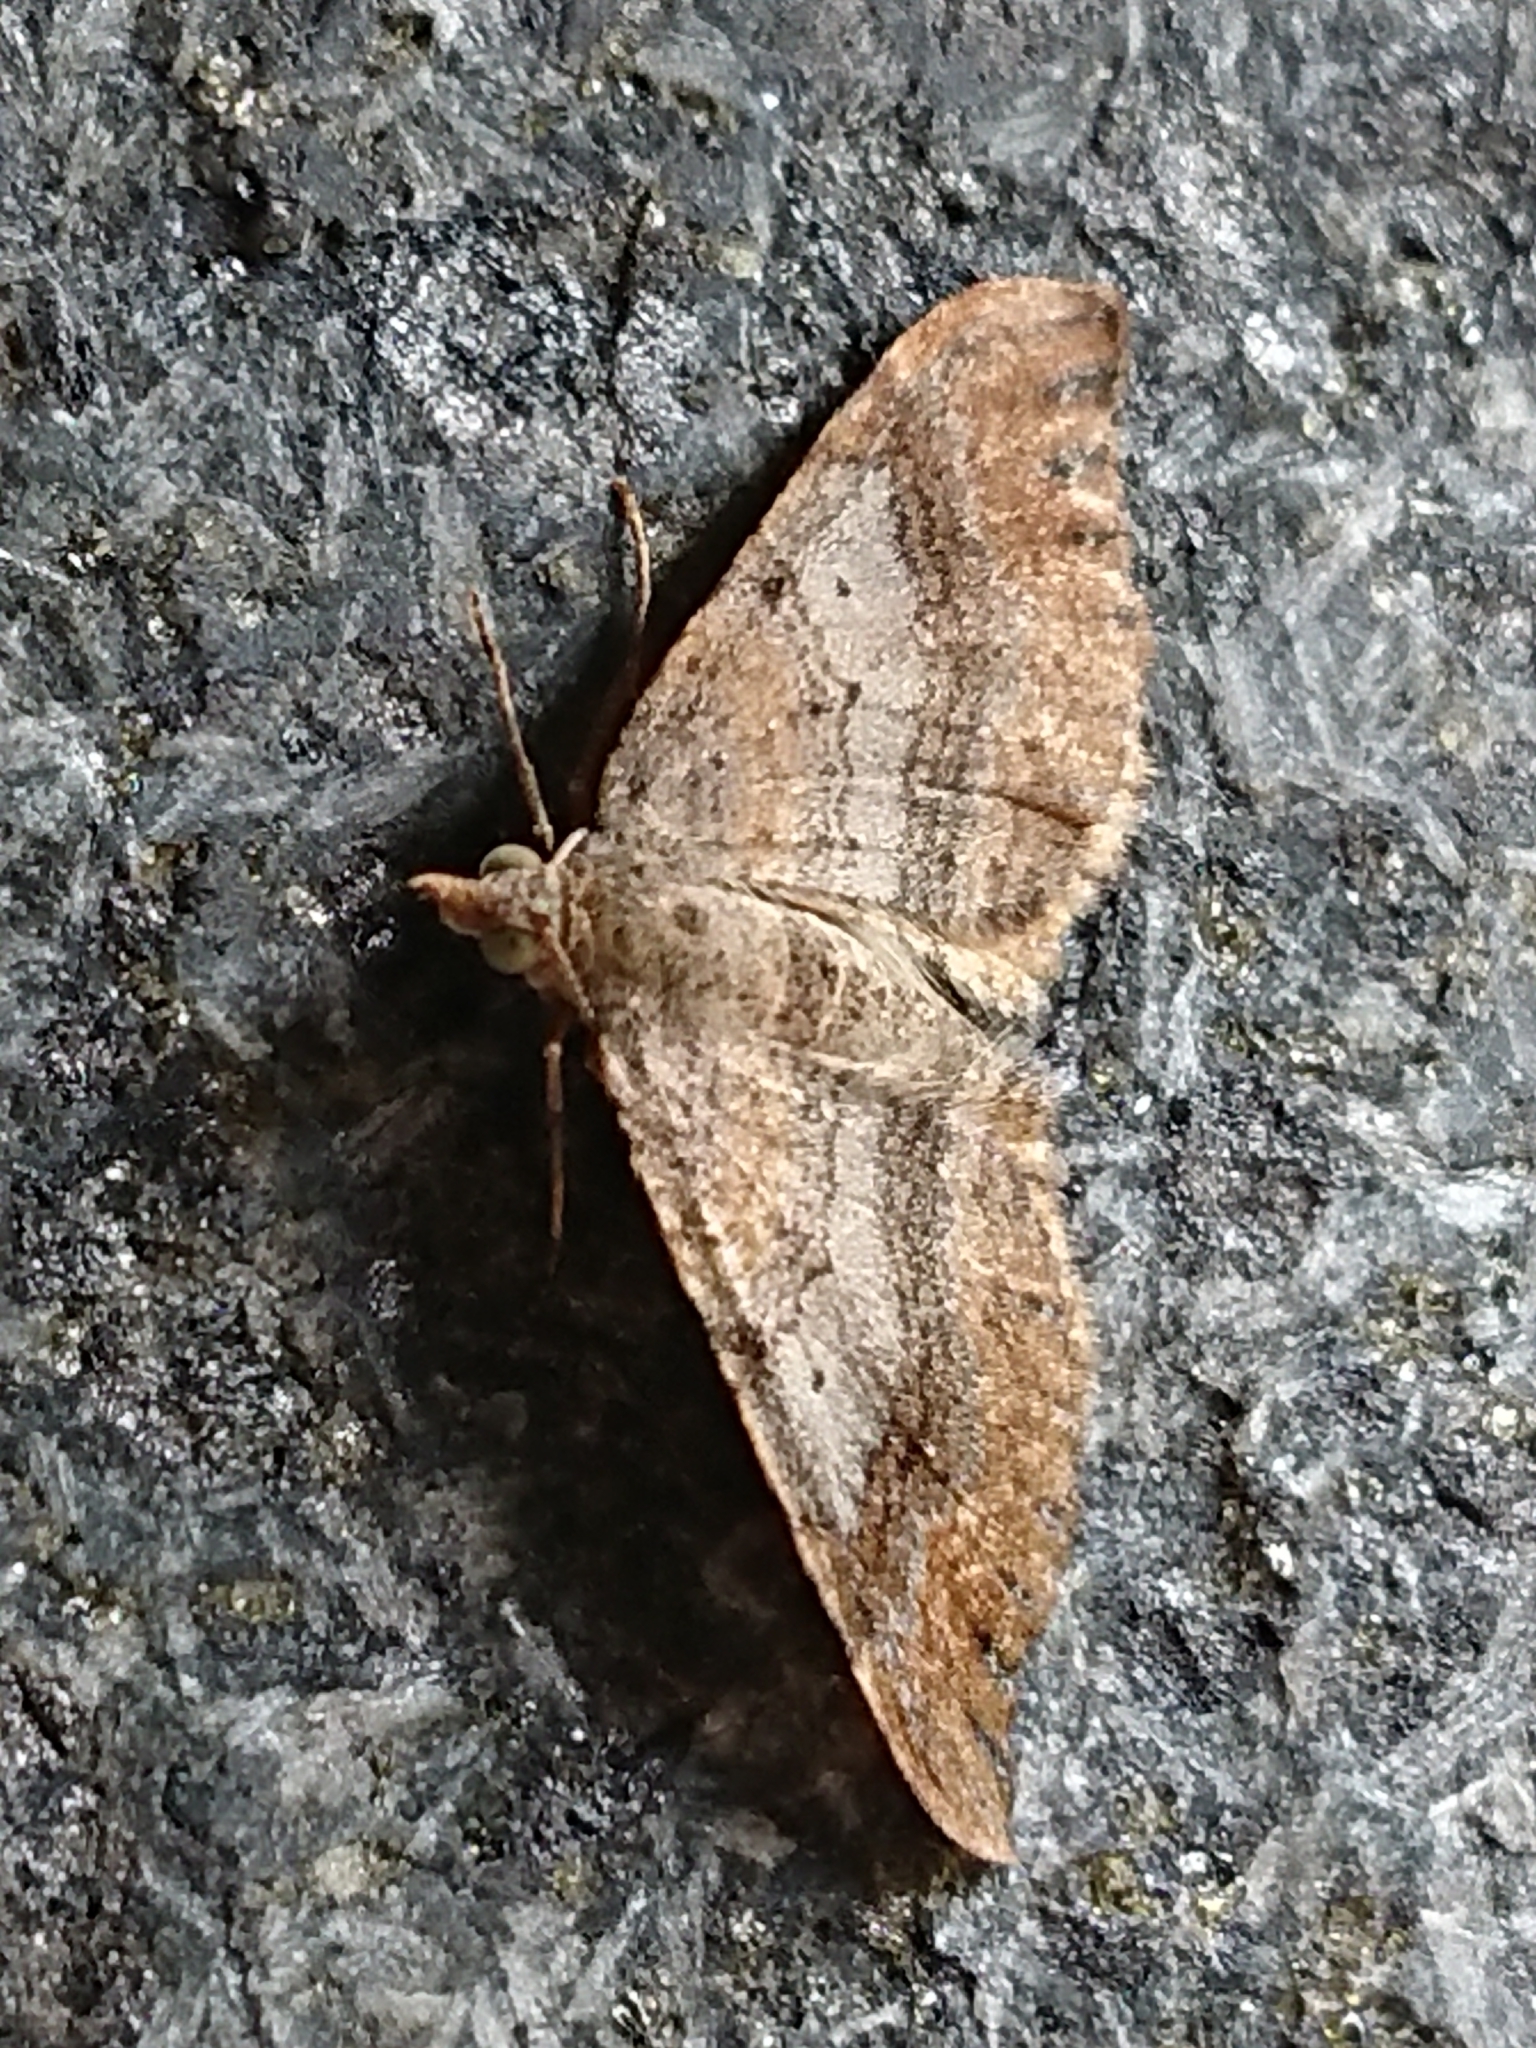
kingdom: Animalia
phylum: Arthropoda
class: Insecta
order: Lepidoptera
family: Geometridae
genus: Homodotis
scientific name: Homodotis megaspilata
